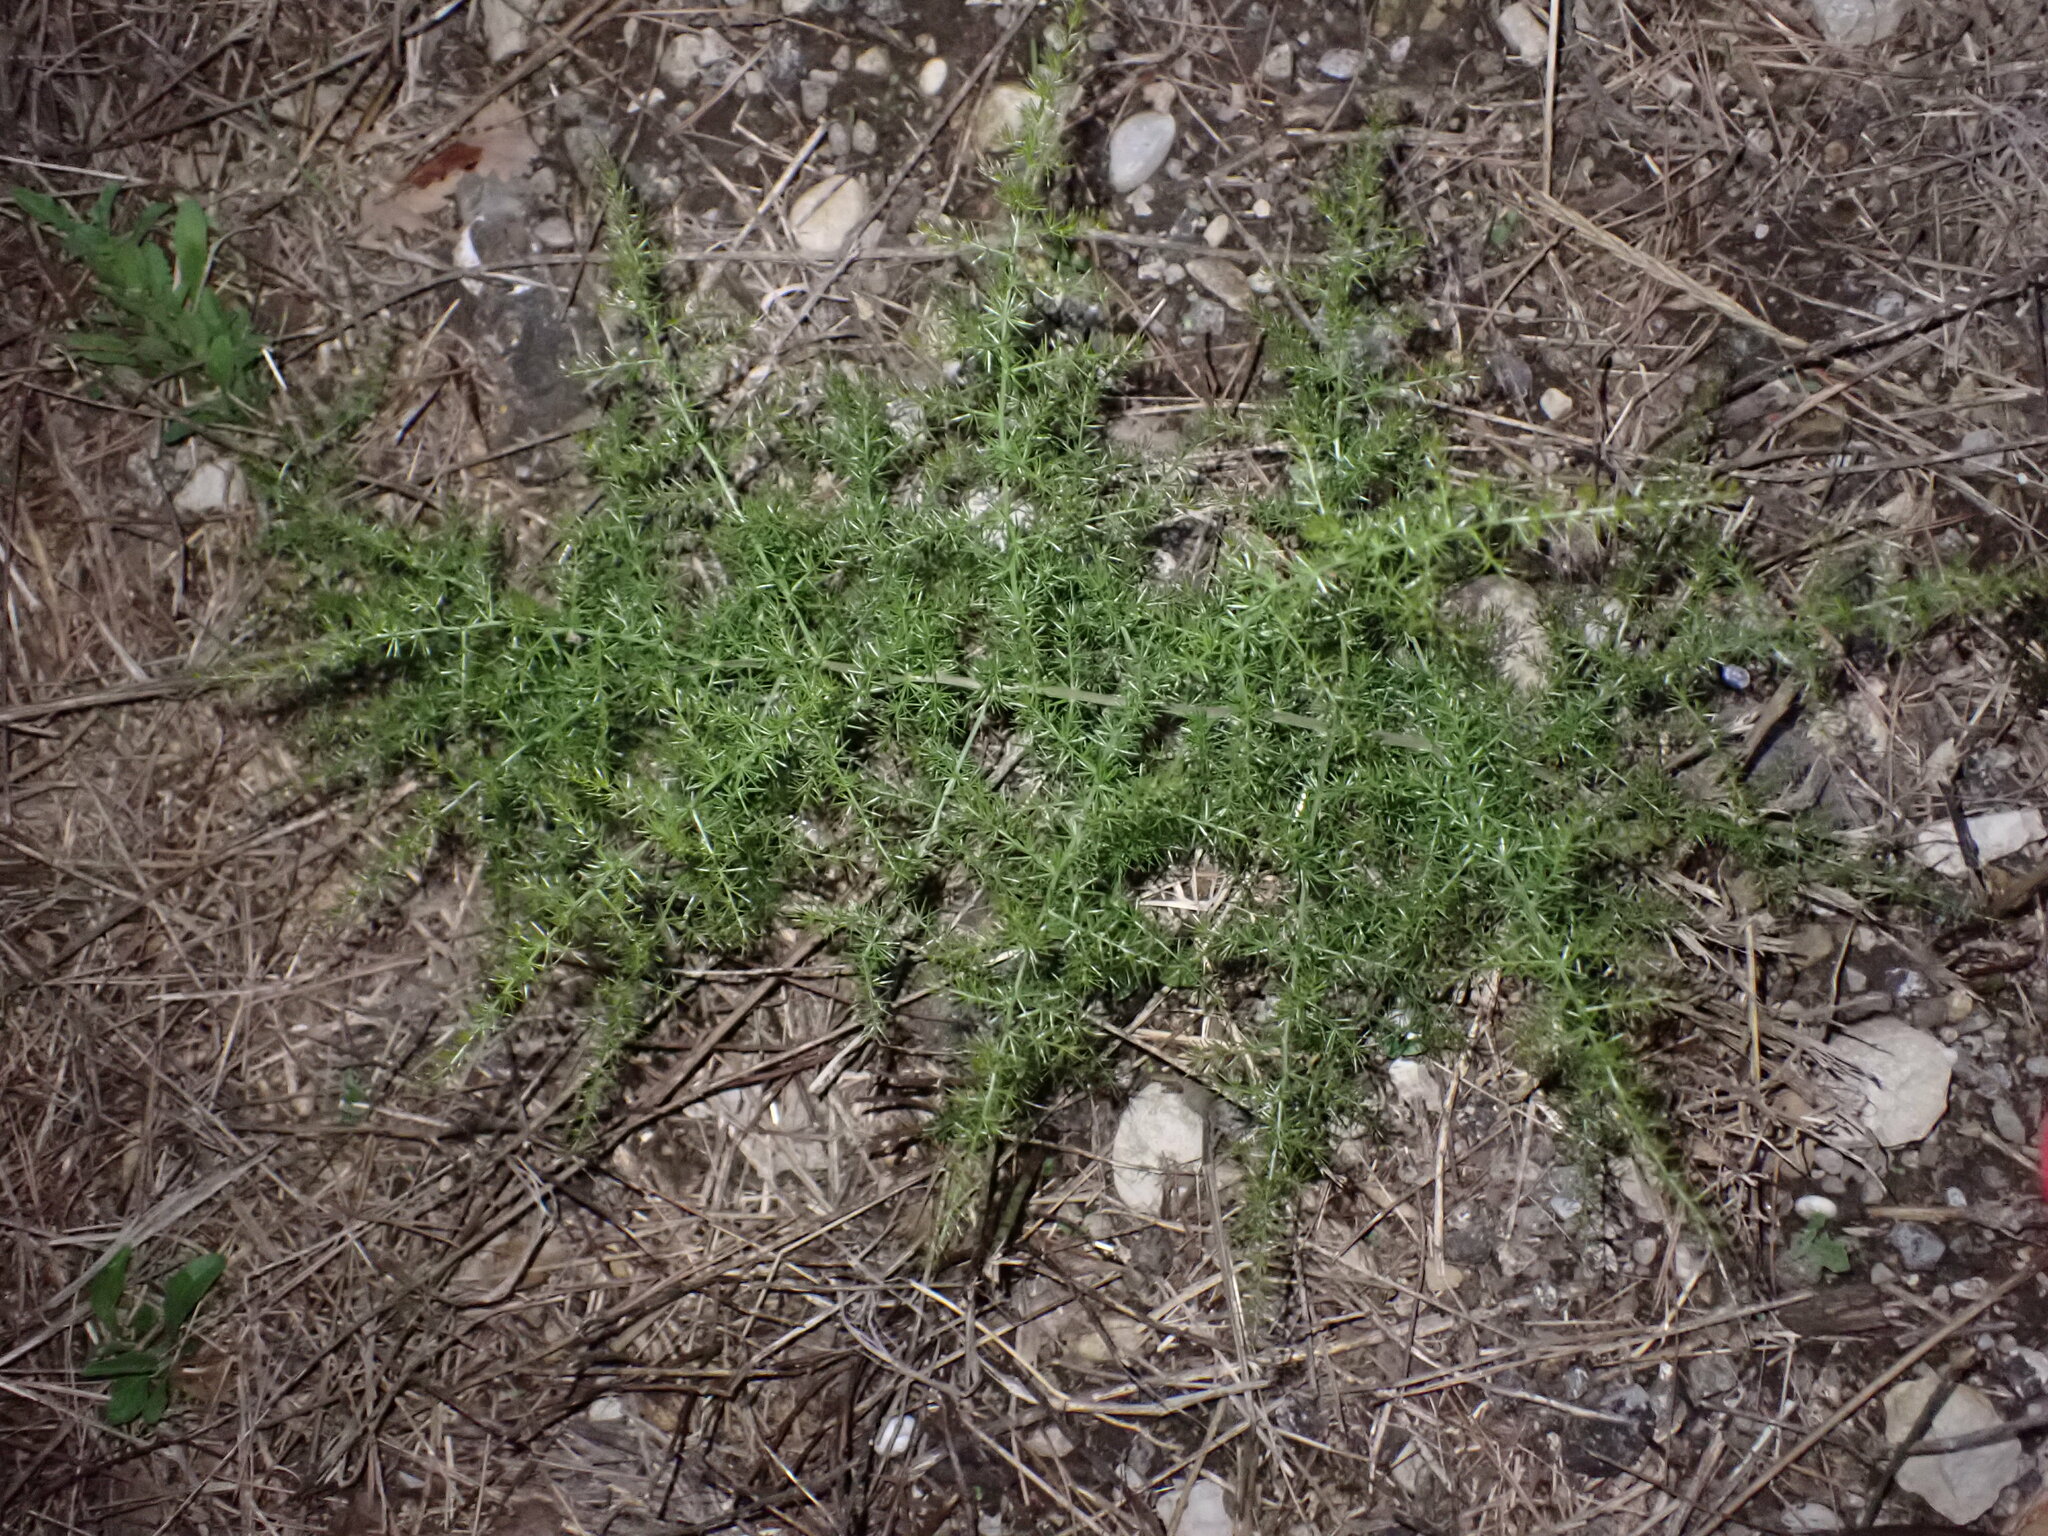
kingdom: Plantae
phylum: Tracheophyta
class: Liliopsida
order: Asparagales
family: Asparagaceae
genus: Asparagus
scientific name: Asparagus acutifolius
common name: Wild asparagus
